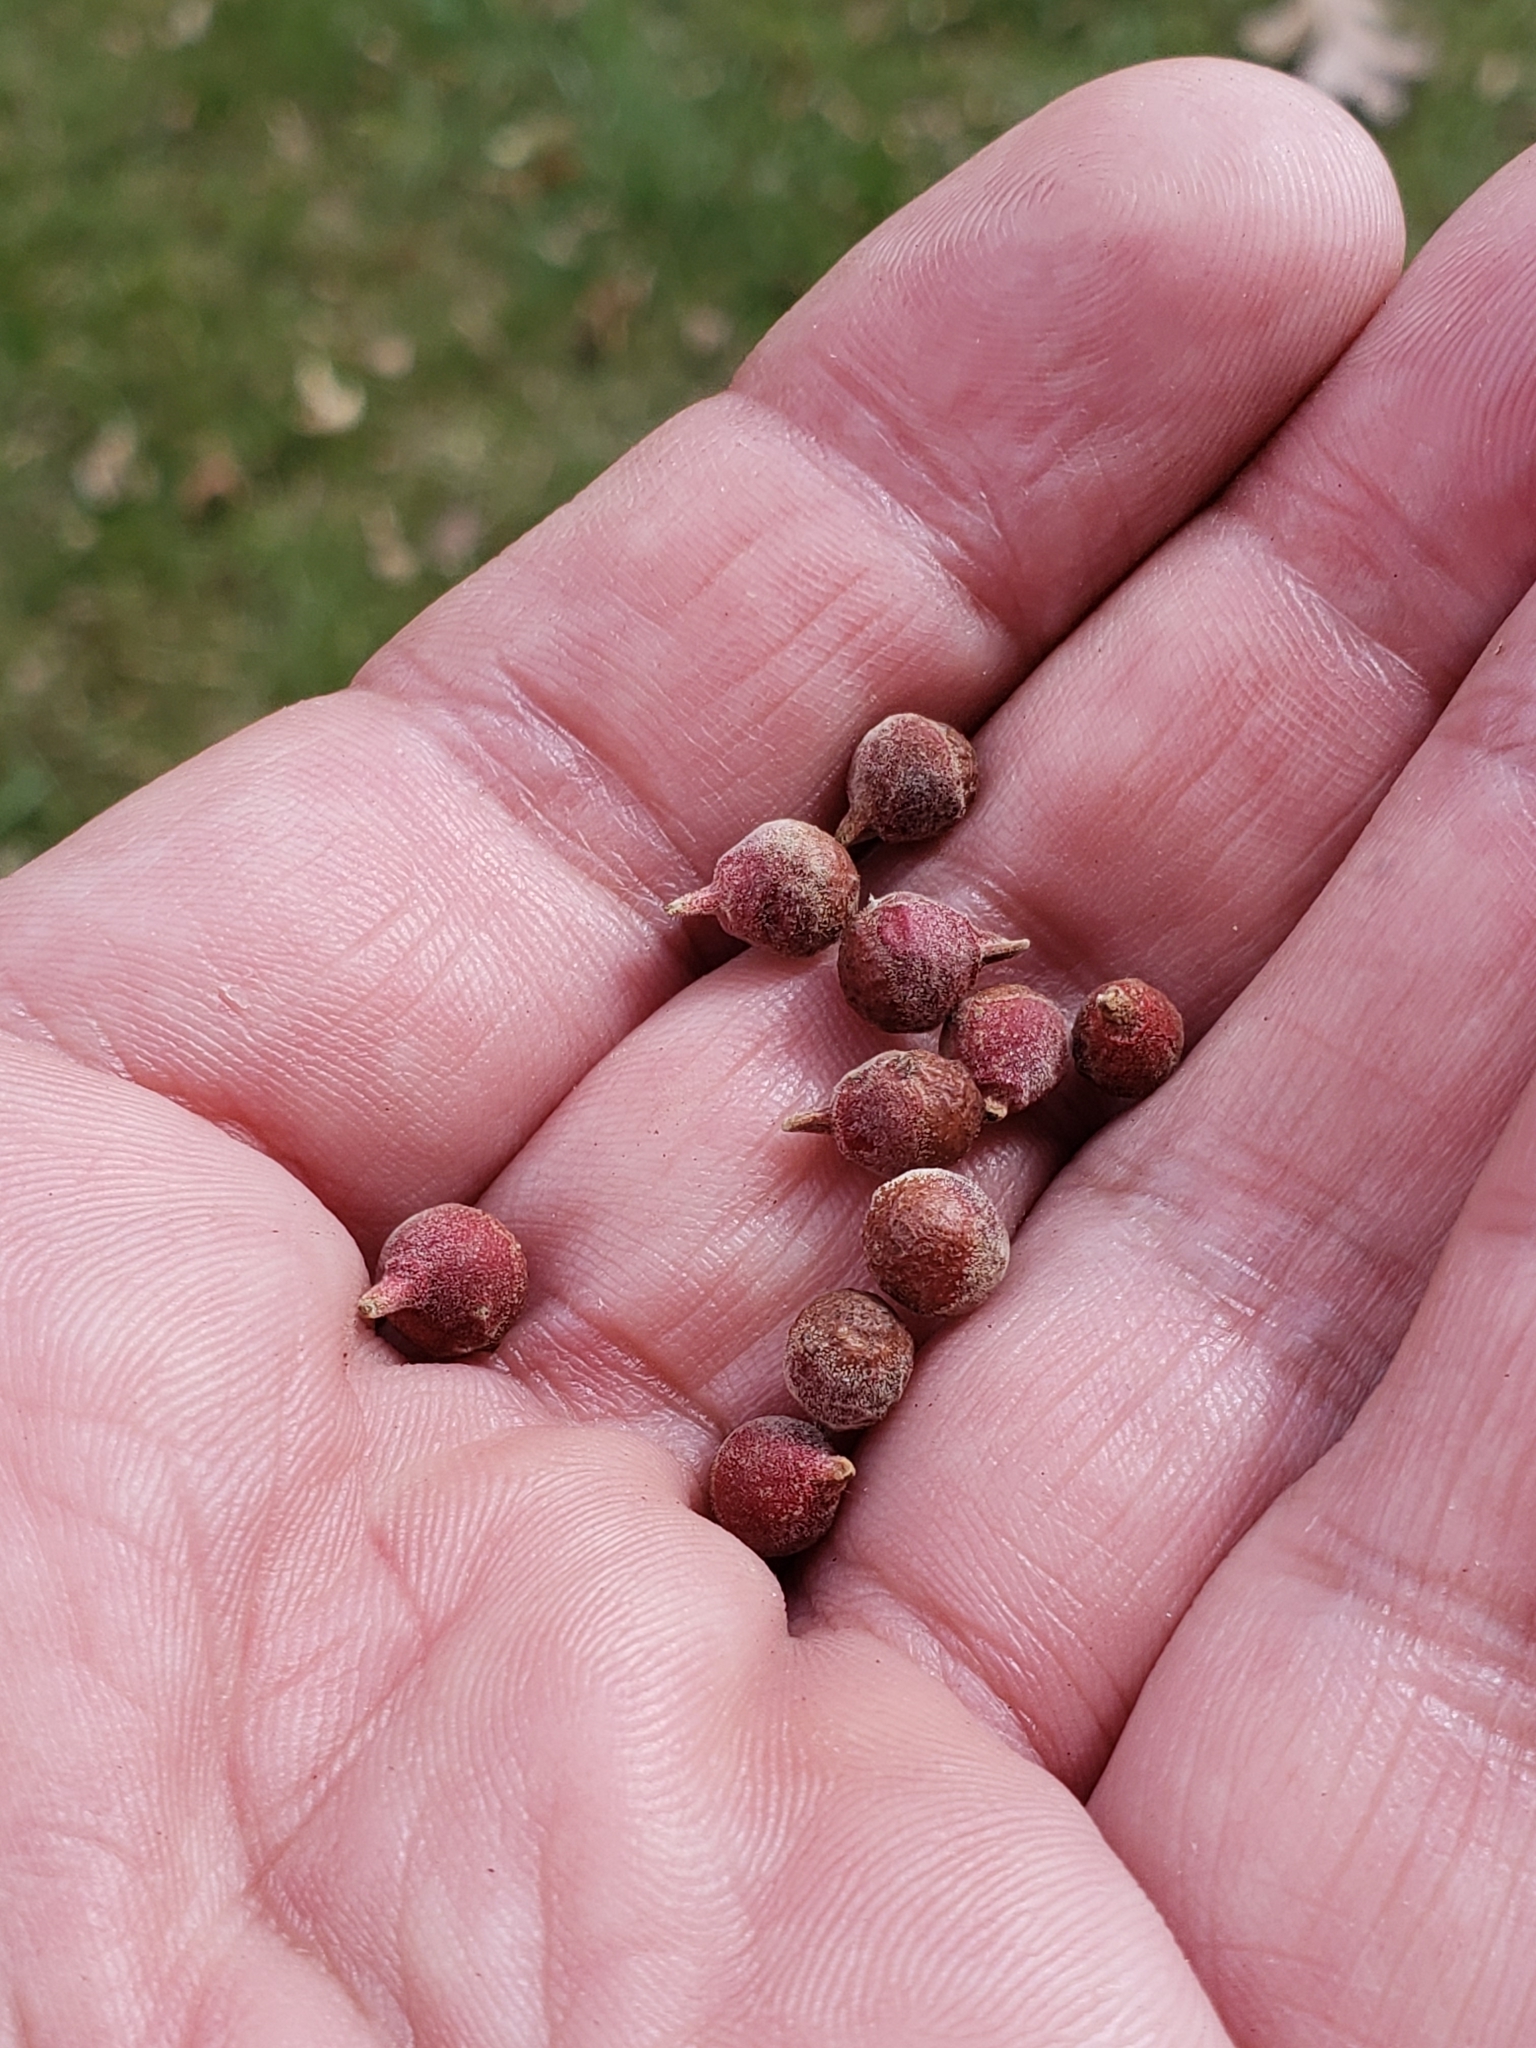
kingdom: Animalia
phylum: Arthropoda
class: Insecta
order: Hymenoptera
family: Cynipidae
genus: Andricus
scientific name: Andricus
